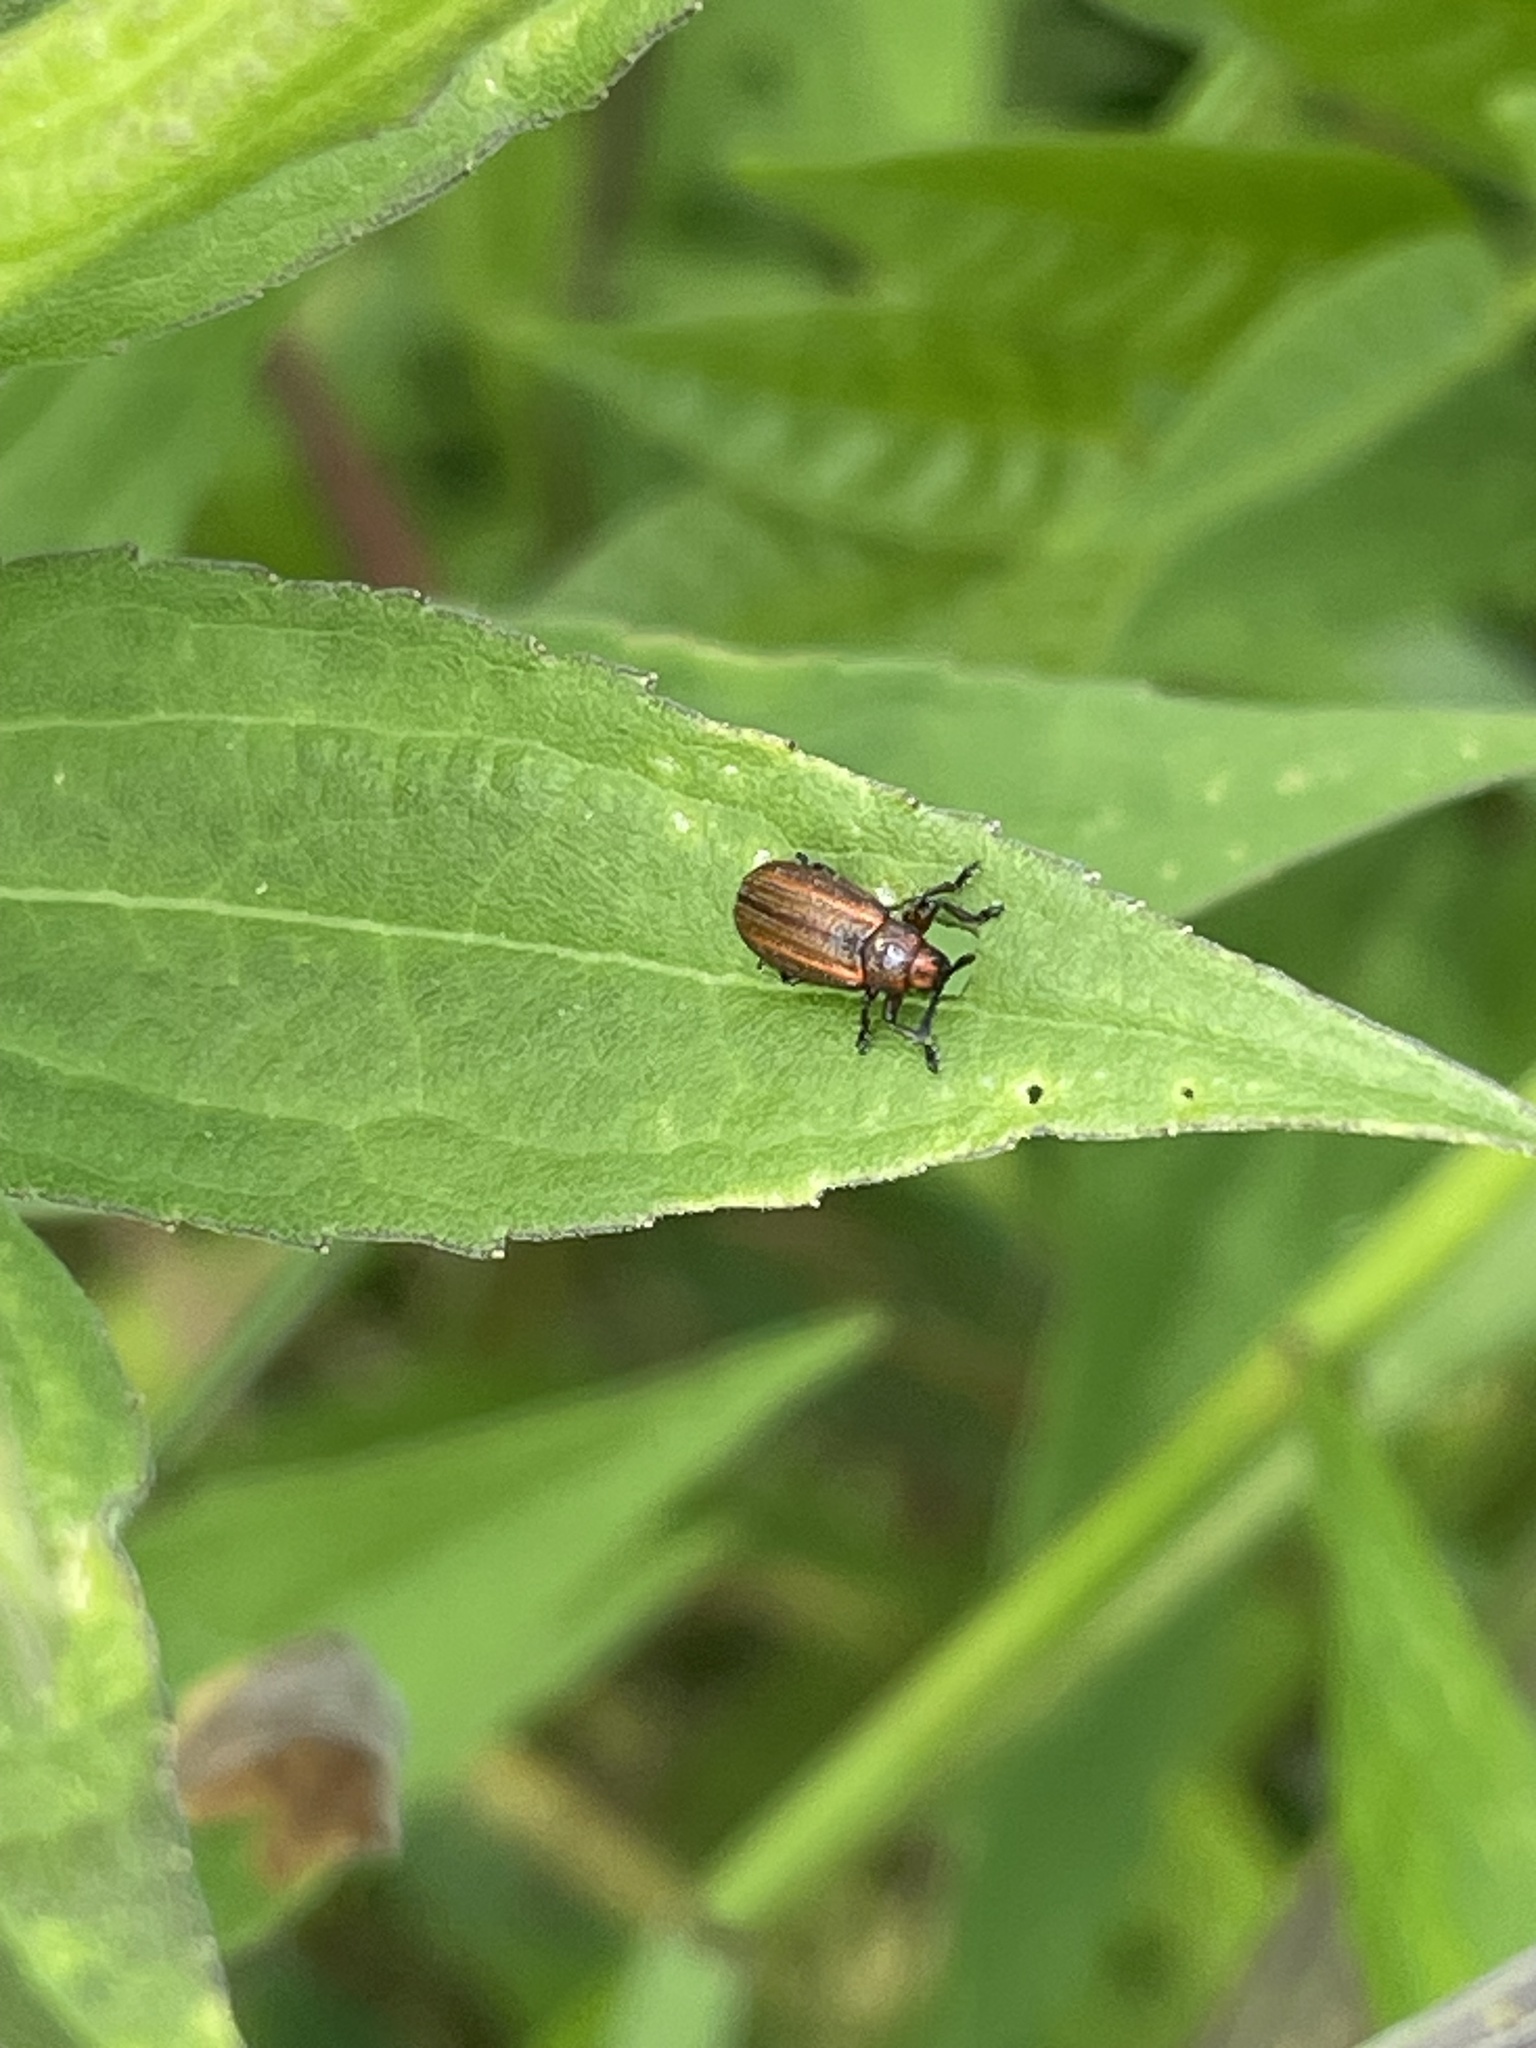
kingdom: Animalia
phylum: Arthropoda
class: Insecta
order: Coleoptera
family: Chrysomelidae
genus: Microrhopala
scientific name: Microrhopala vittata
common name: Goldenrod leaf miner beetle
